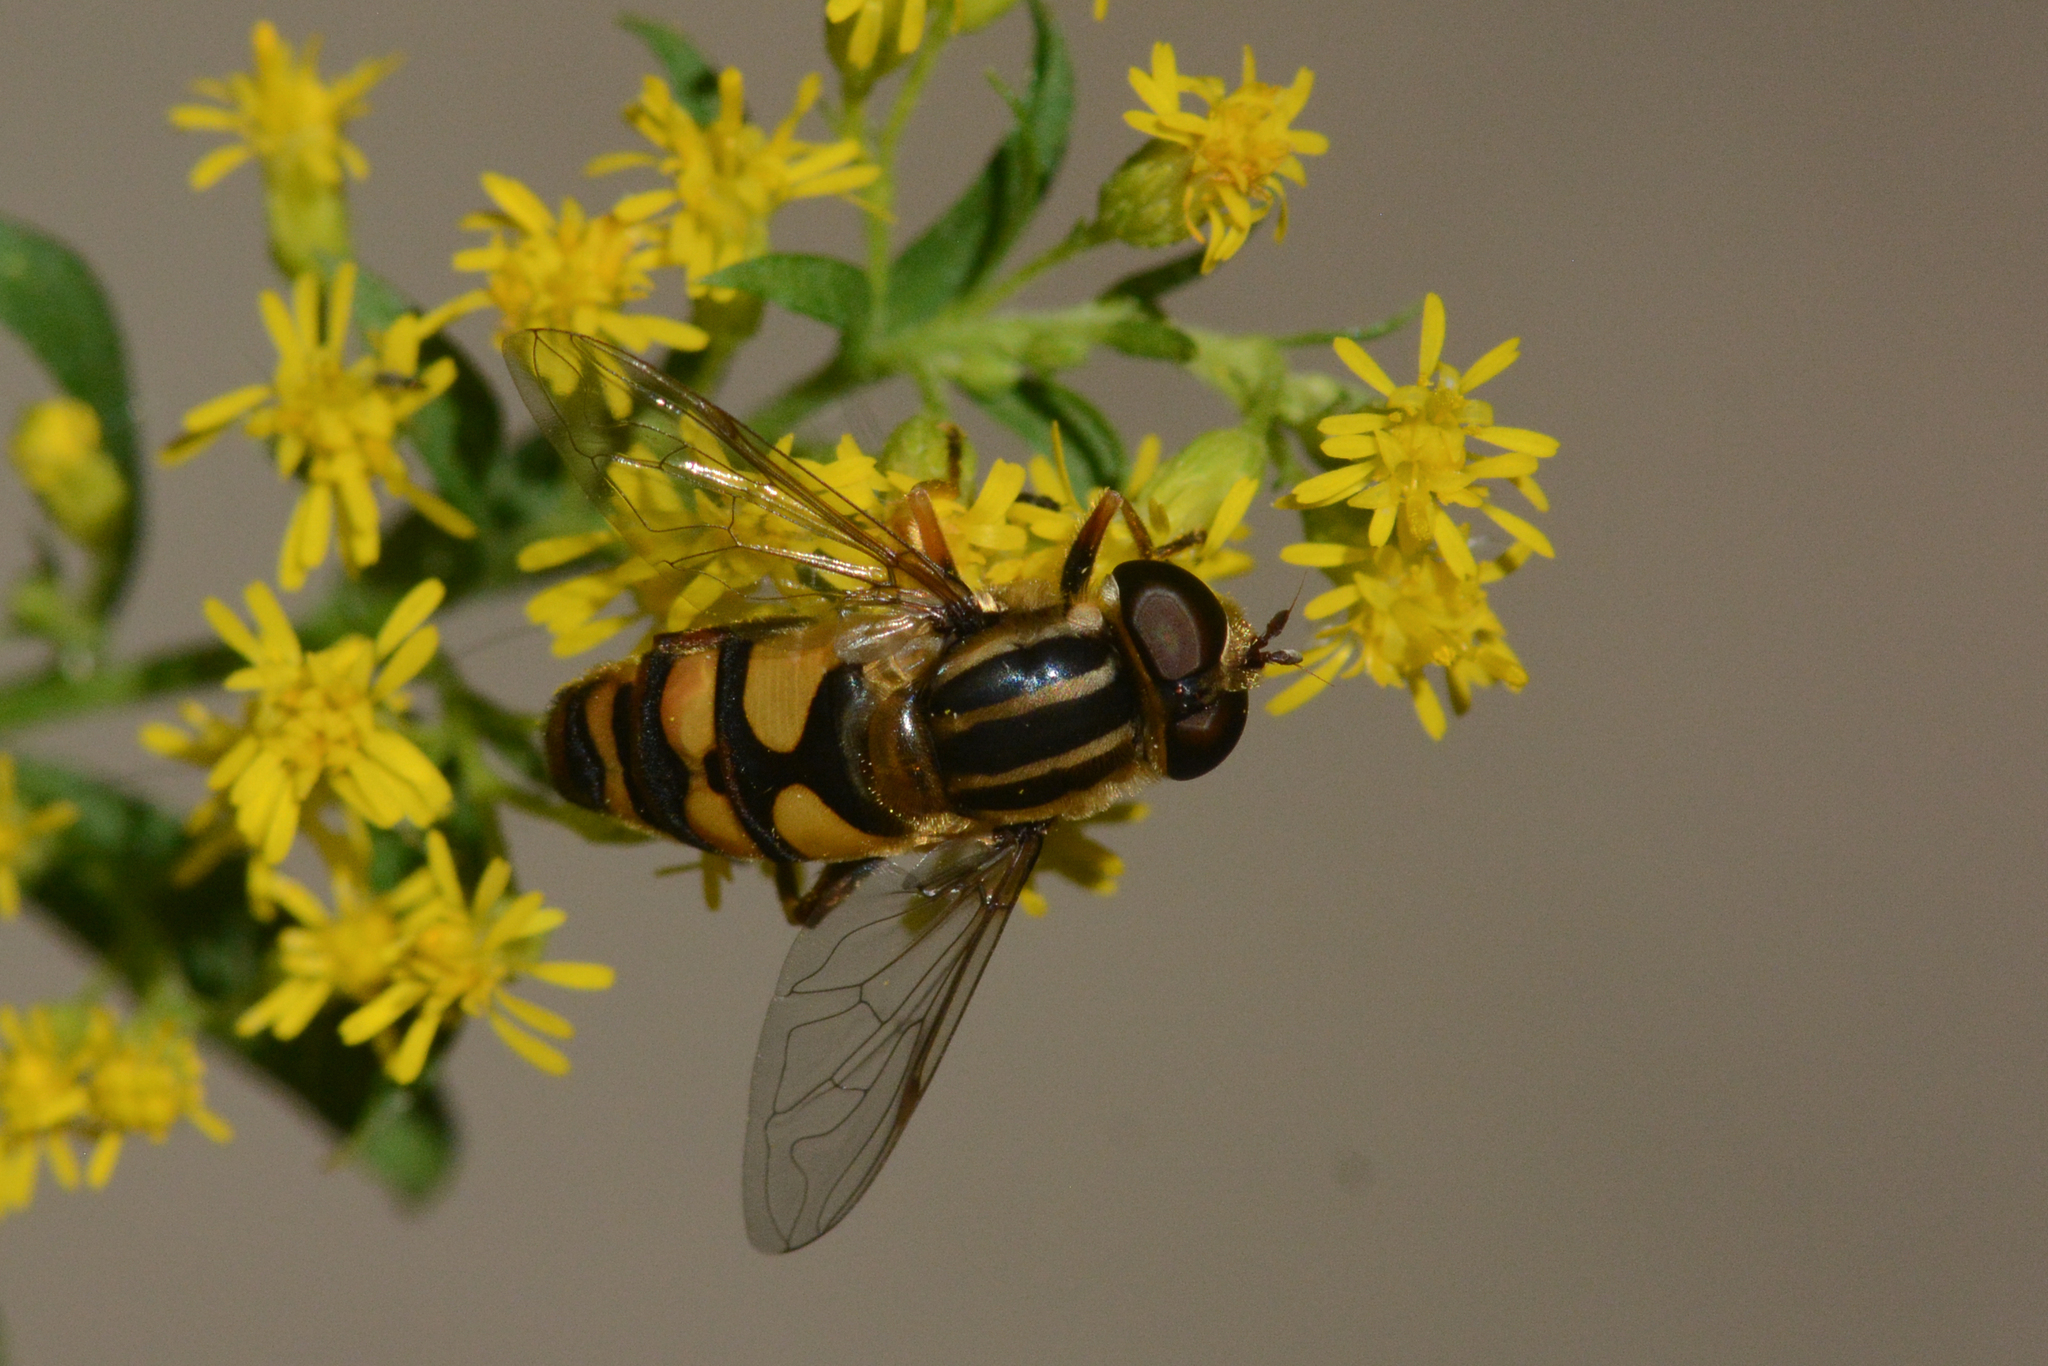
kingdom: Animalia
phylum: Arthropoda
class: Insecta
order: Diptera
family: Syrphidae
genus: Helophilus
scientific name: Helophilus fasciatus
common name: Narrow-headed marsh fly
